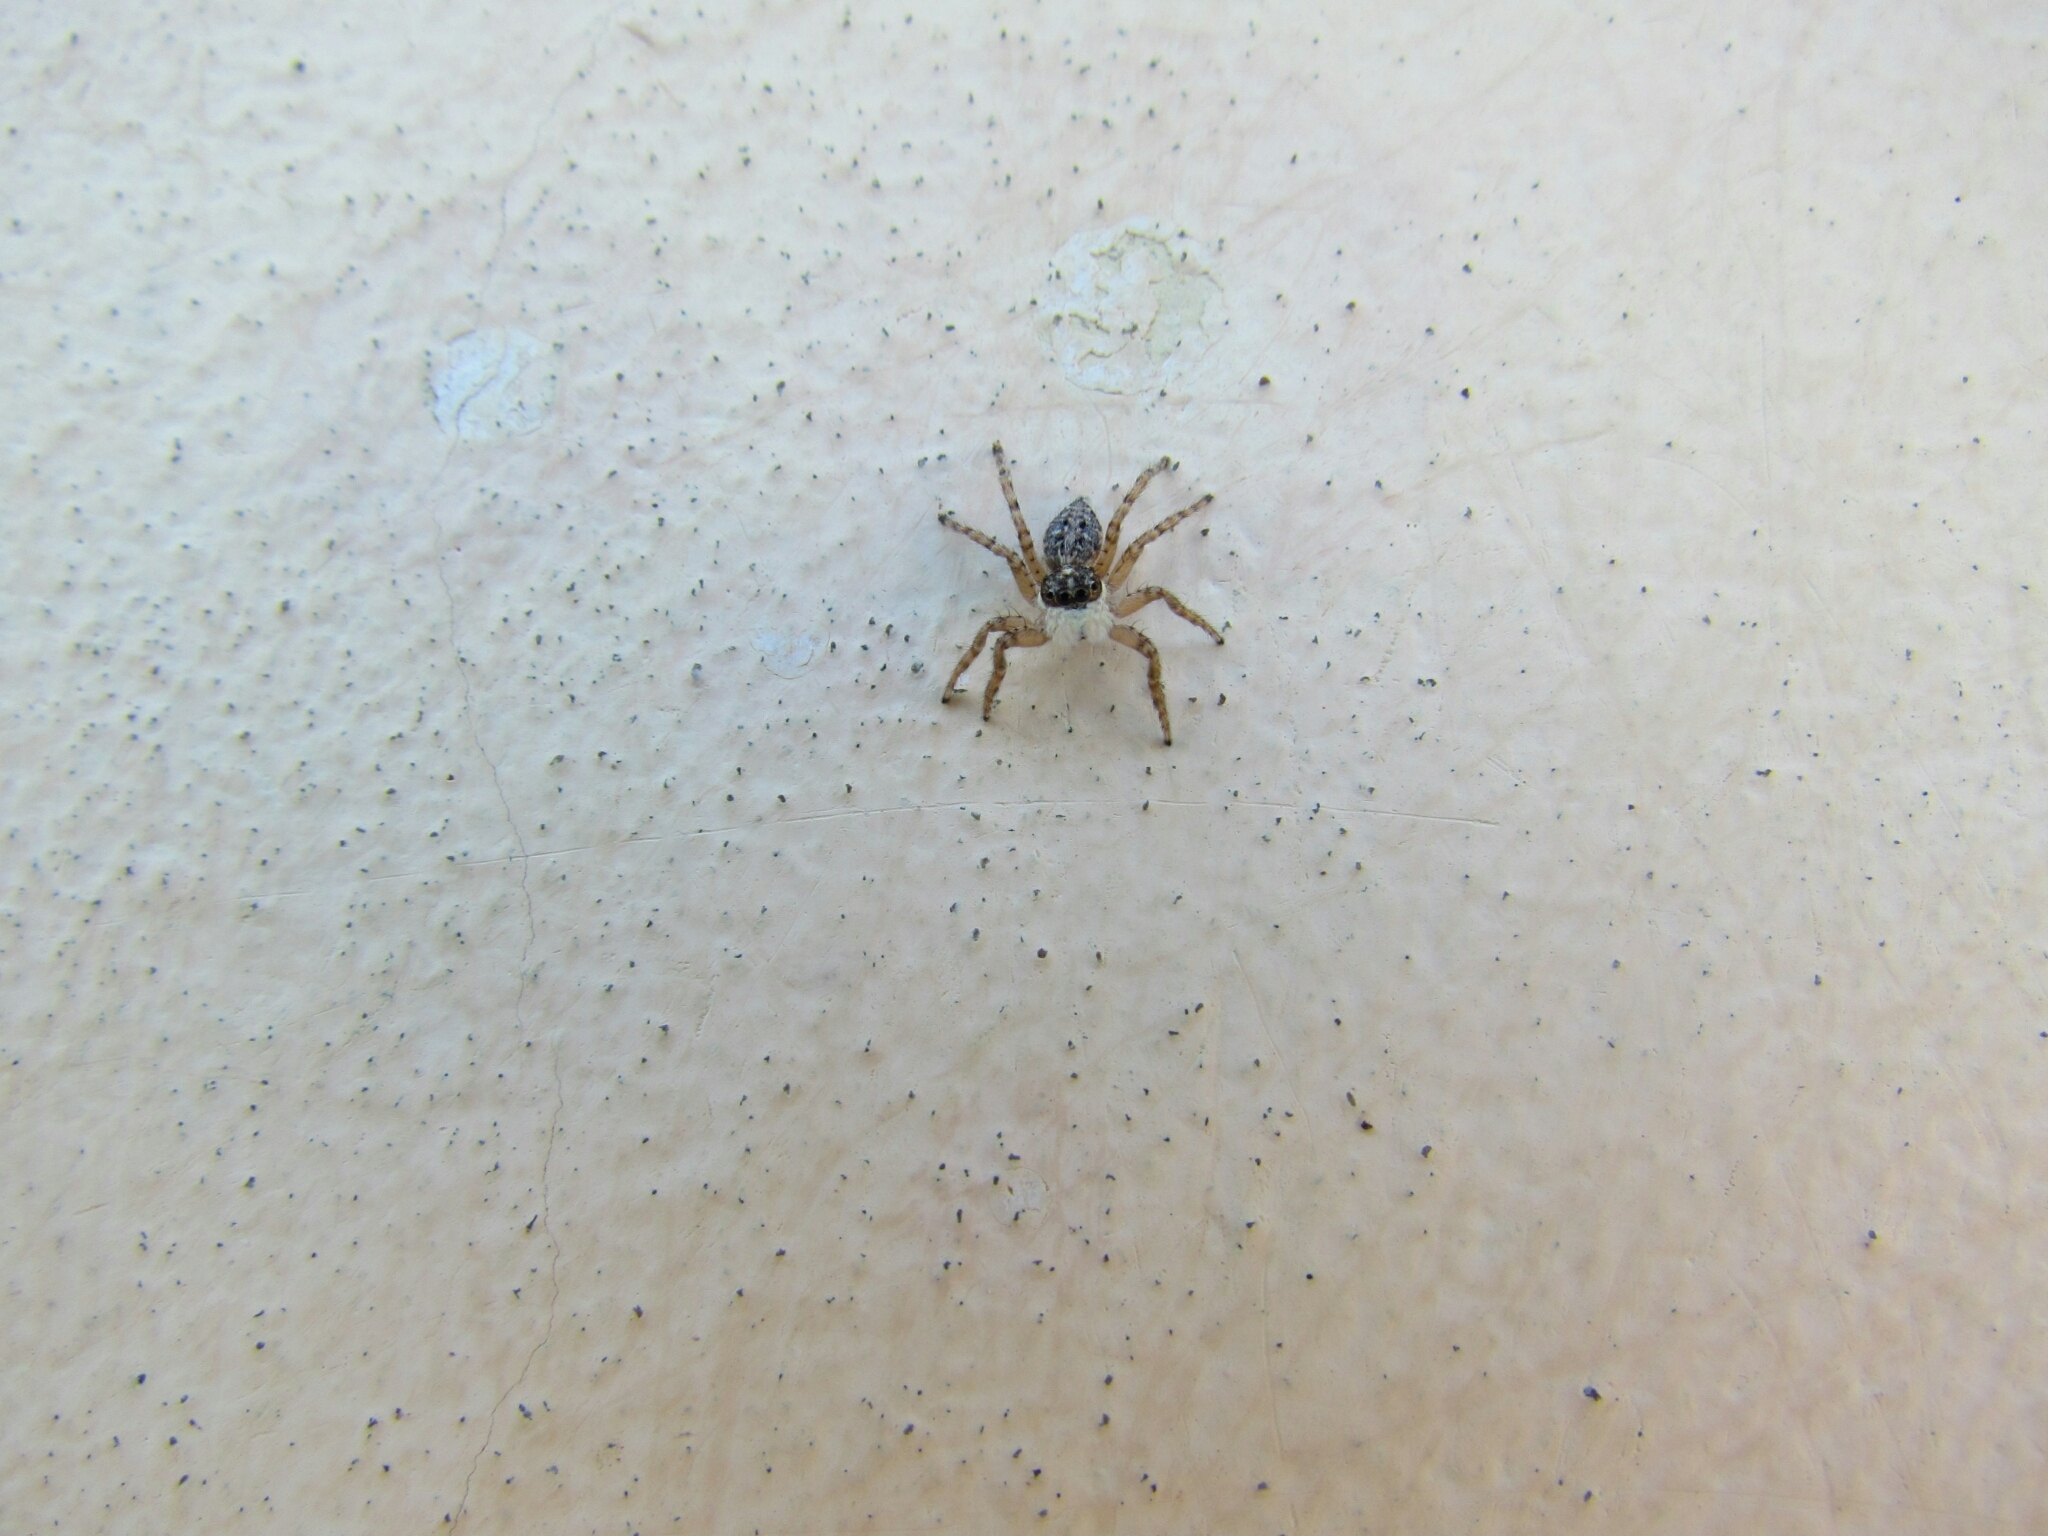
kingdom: Animalia
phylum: Arthropoda
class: Arachnida
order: Araneae
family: Salticidae
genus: Menemerus
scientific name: Menemerus semilimbatus
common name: Jumping spider
